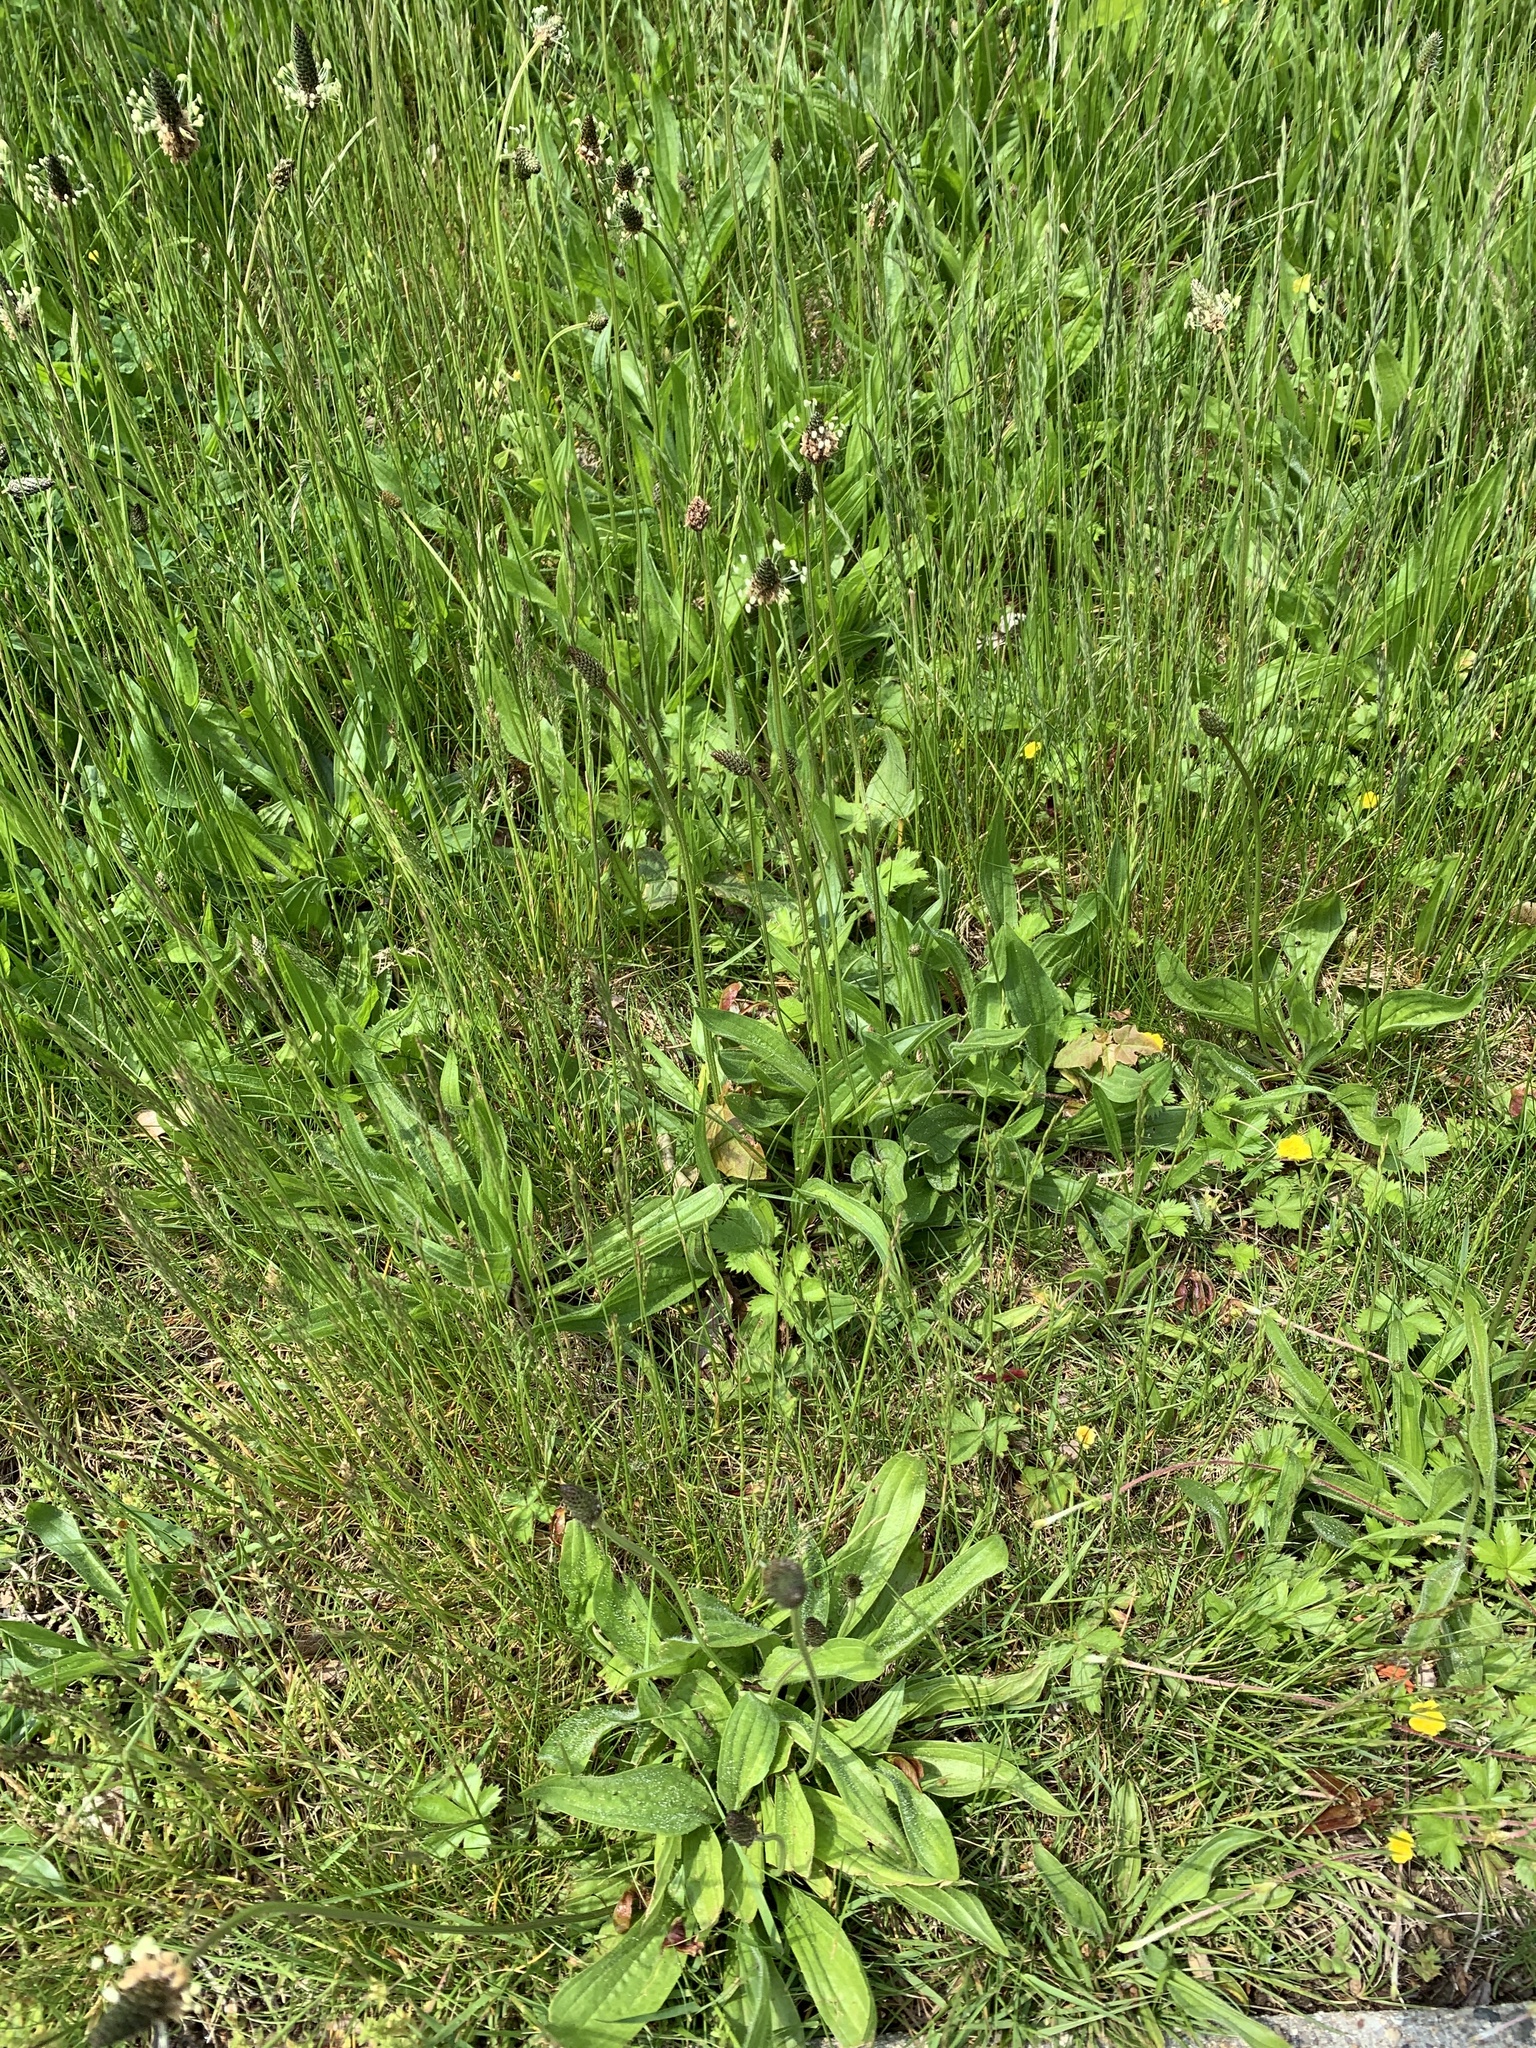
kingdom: Plantae
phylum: Tracheophyta
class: Magnoliopsida
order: Lamiales
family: Plantaginaceae
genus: Plantago
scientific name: Plantago lanceolata
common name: Ribwort plantain
